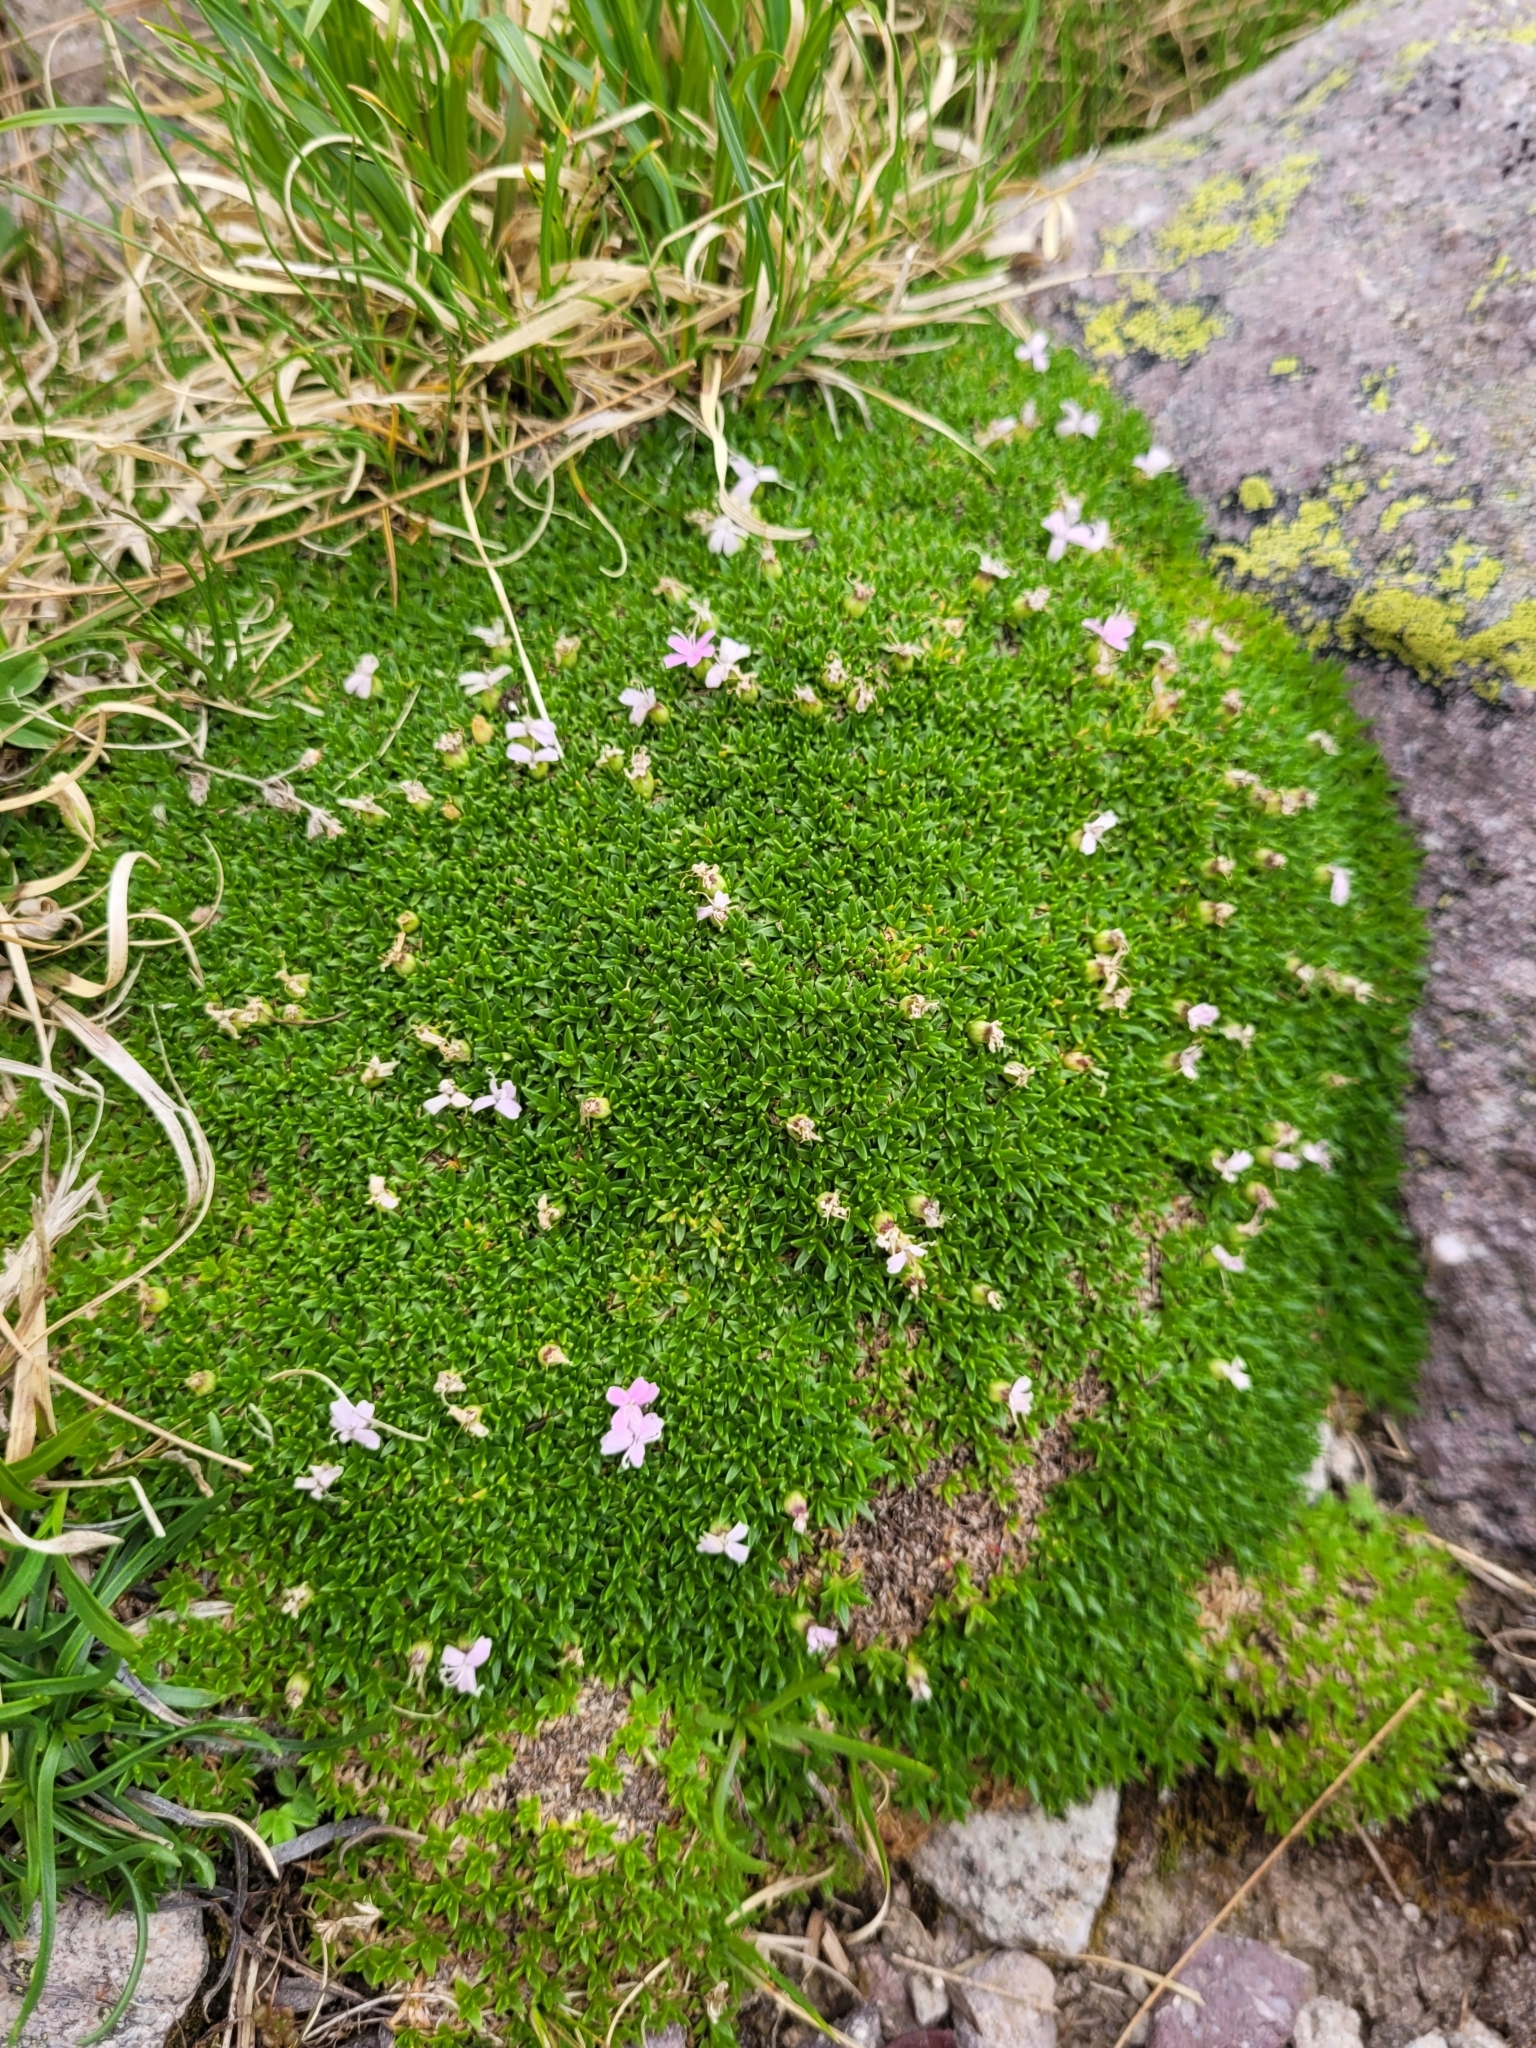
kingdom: Plantae
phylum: Tracheophyta
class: Magnoliopsida
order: Caryophyllales
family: Caryophyllaceae
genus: Silene
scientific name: Silene acaulis
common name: Moss campion
